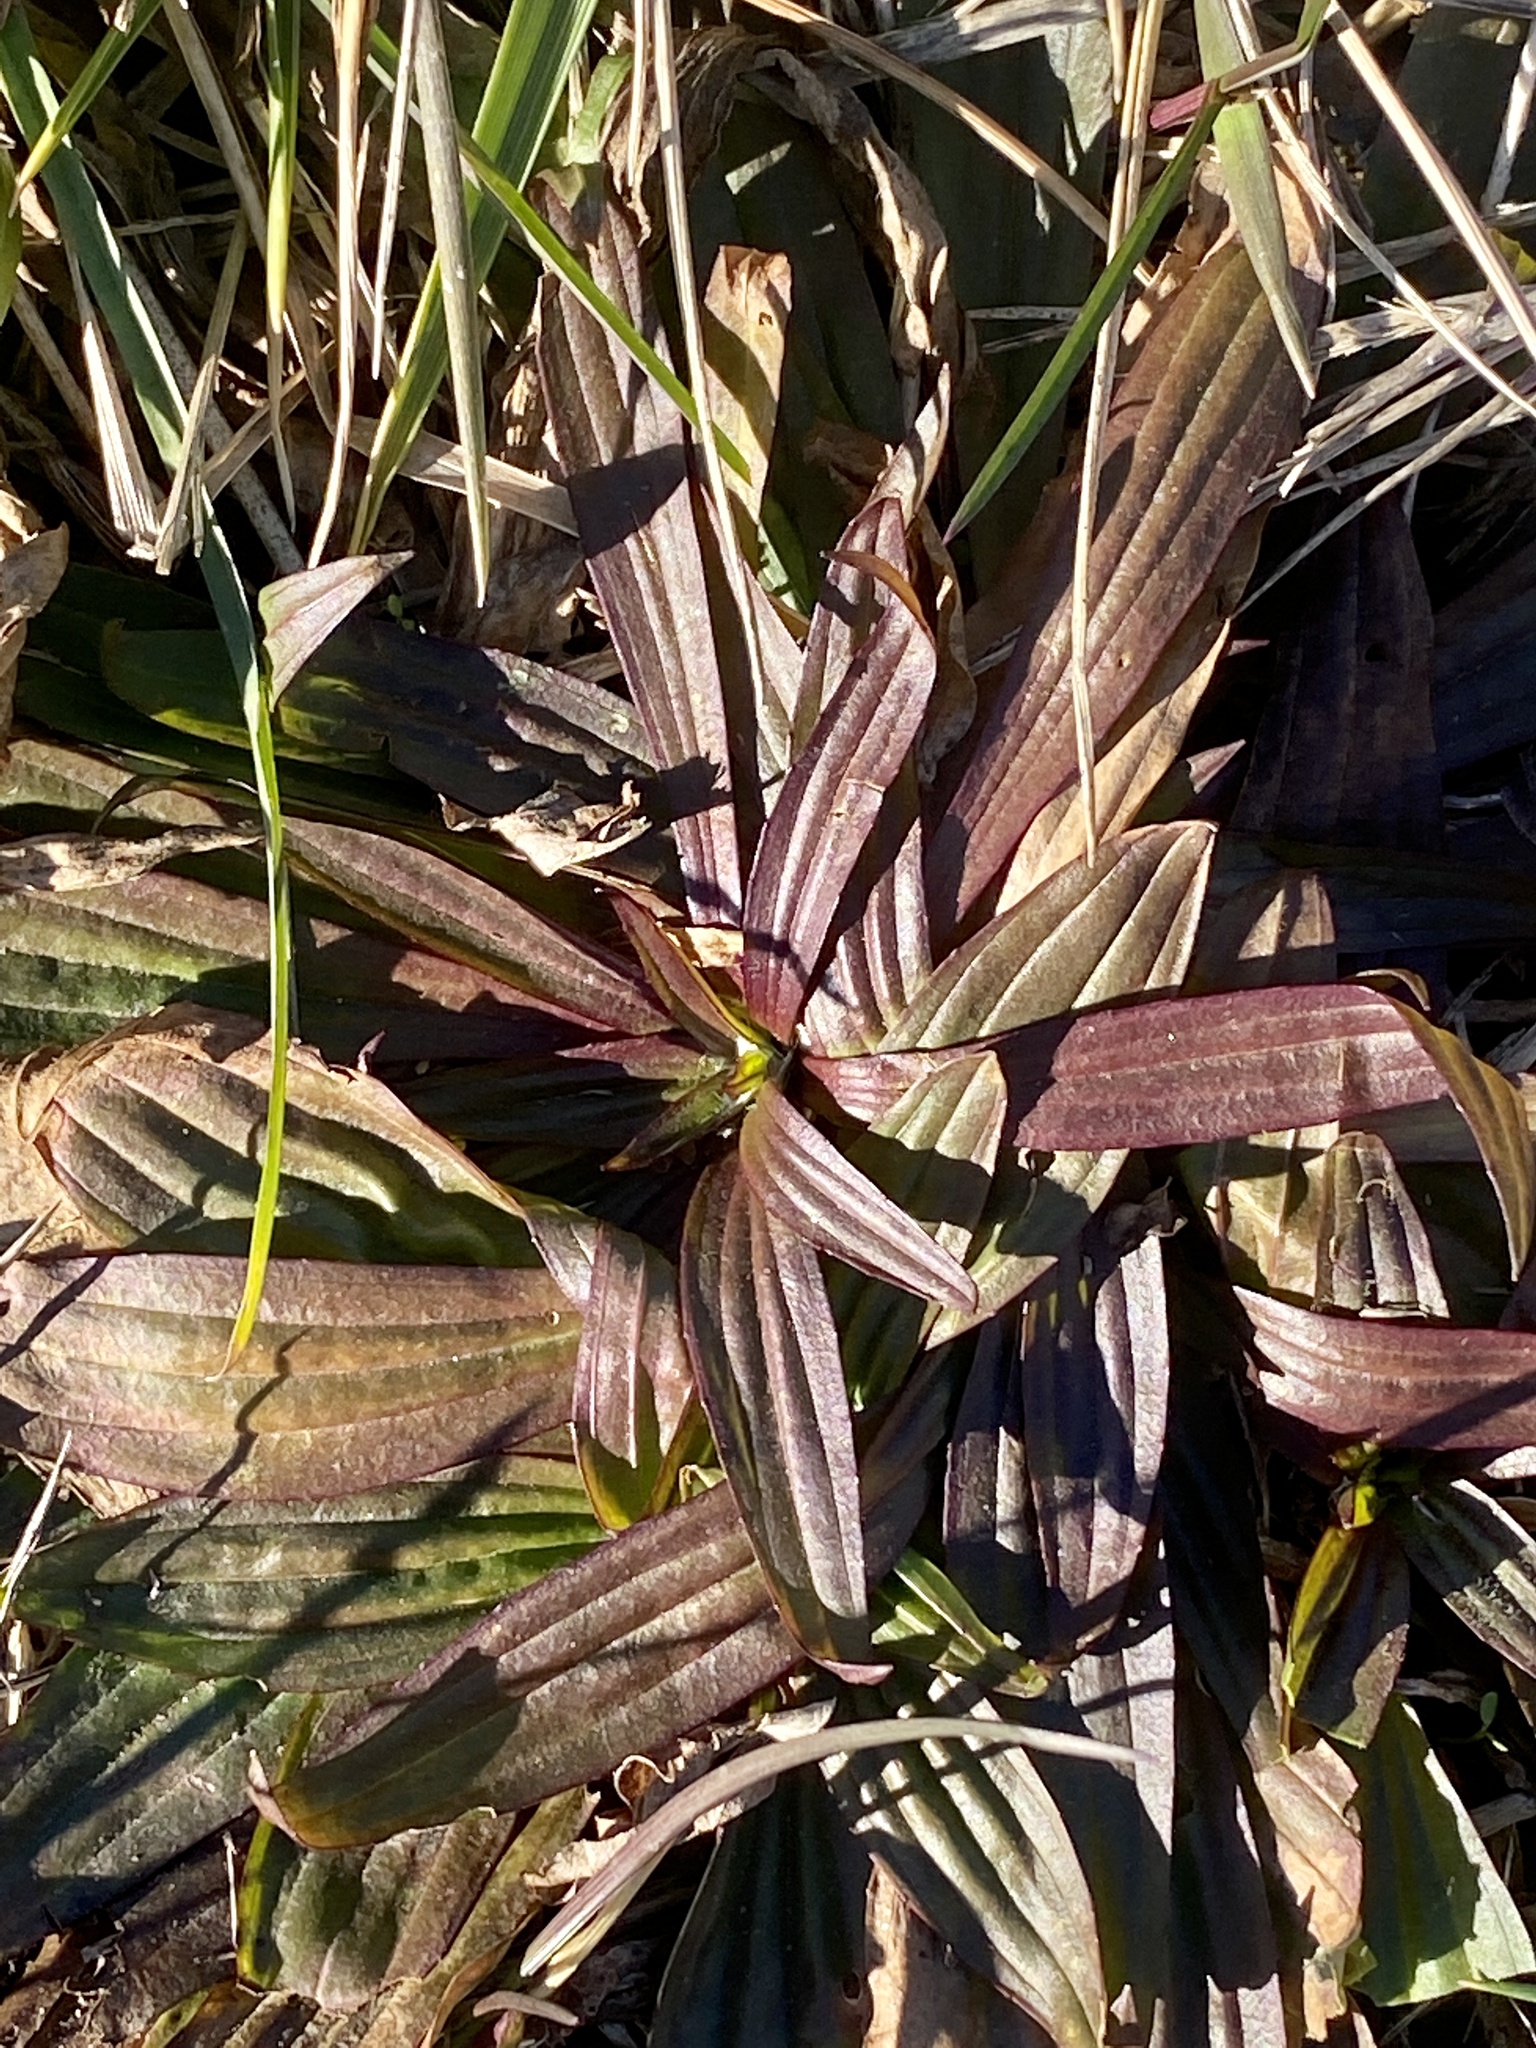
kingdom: Plantae
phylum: Tracheophyta
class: Magnoliopsida
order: Lamiales
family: Plantaginaceae
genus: Plantago
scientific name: Plantago lanceolata
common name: Ribwort plantain
